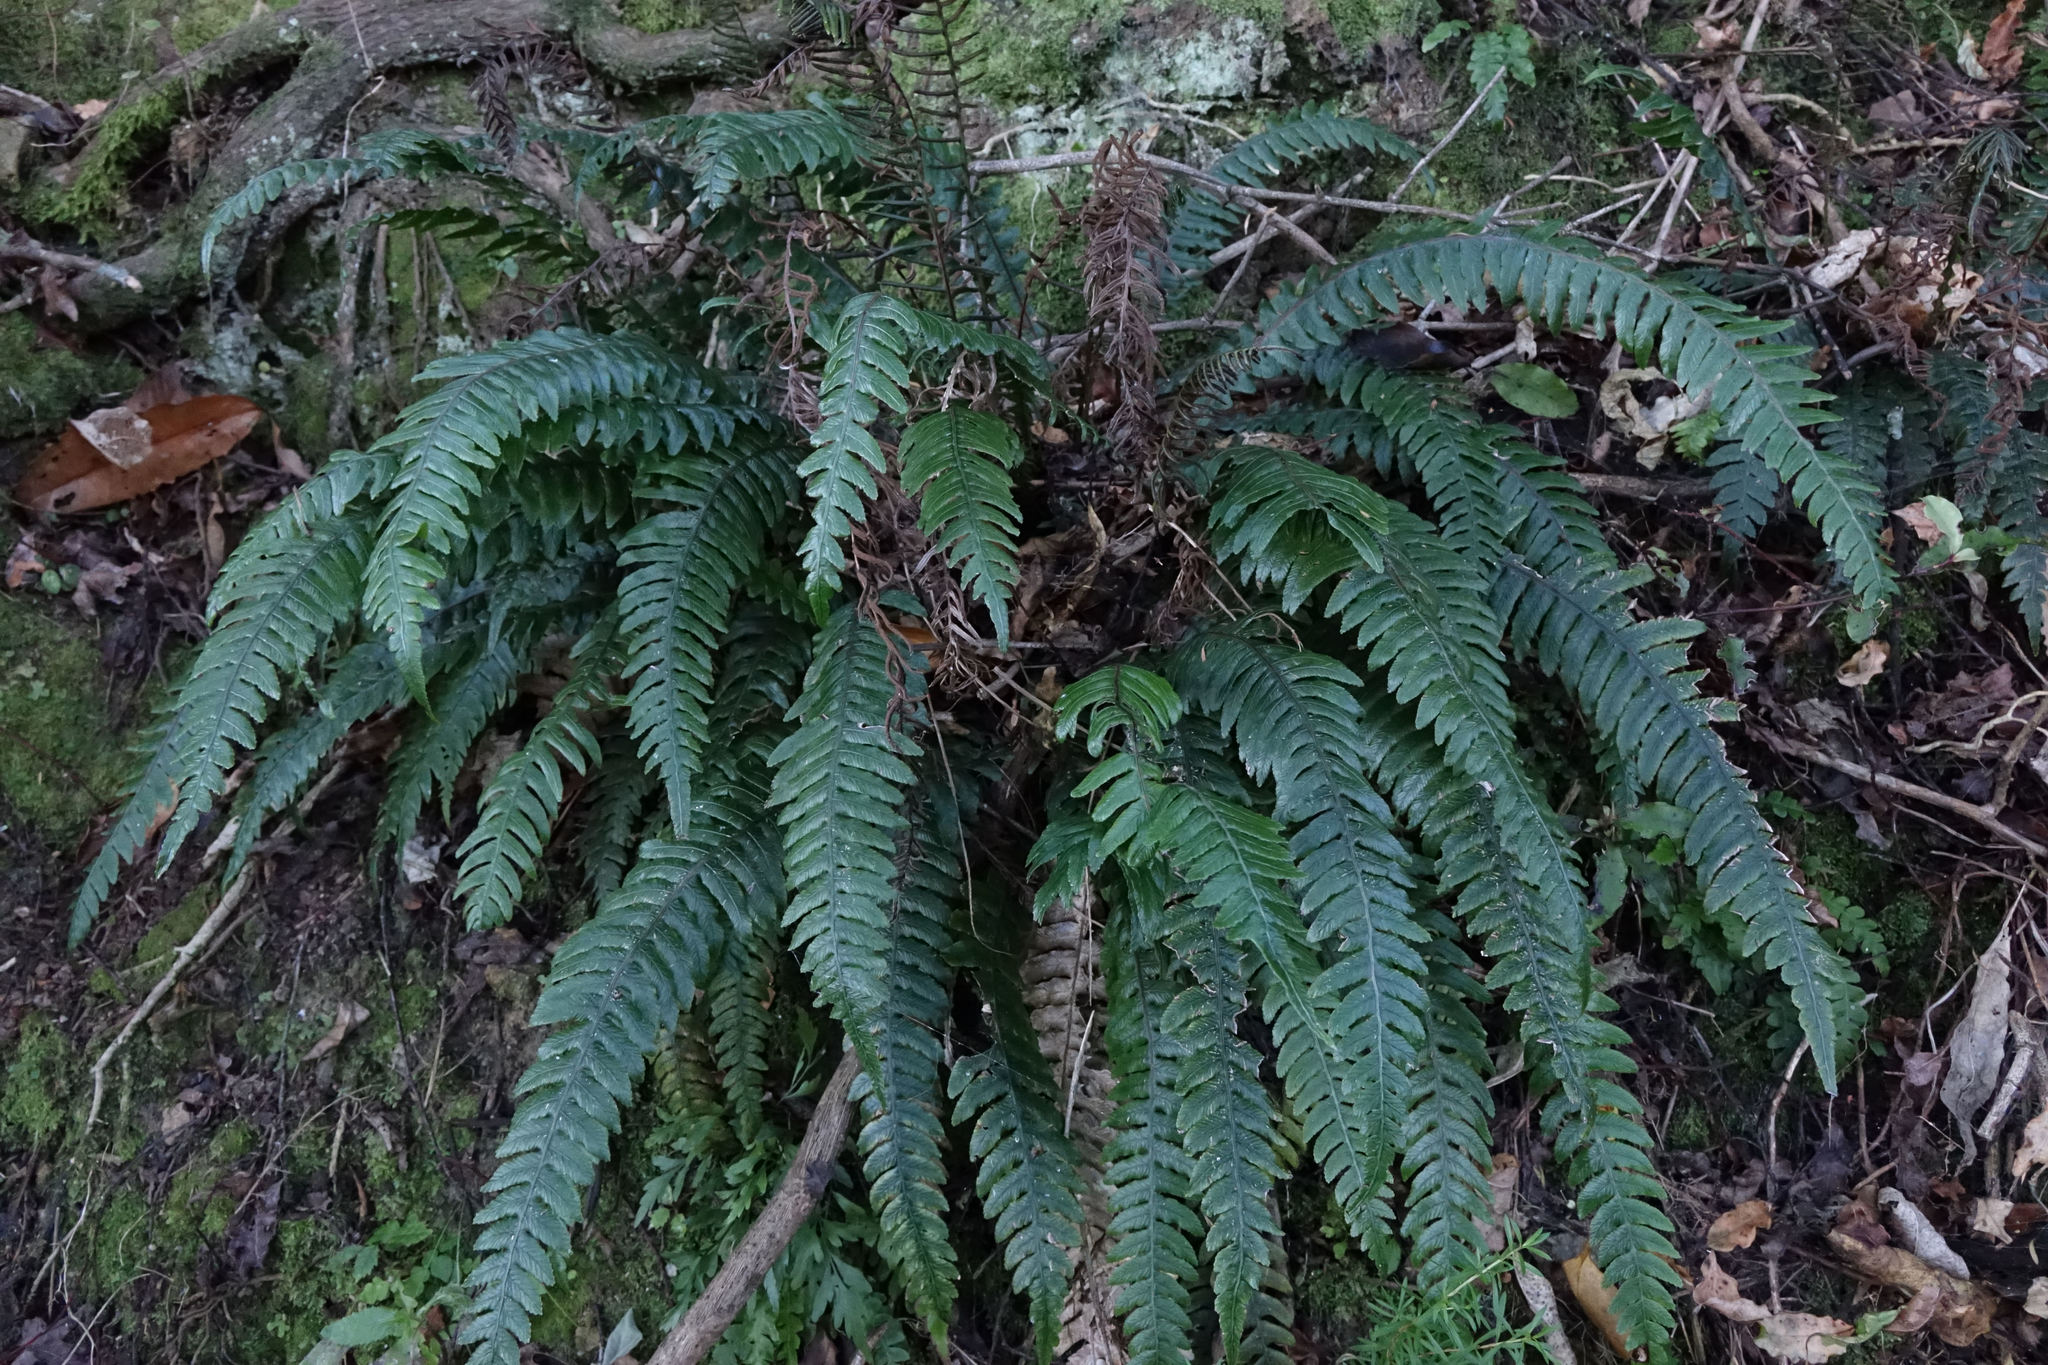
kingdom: Plantae
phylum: Tracheophyta
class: Polypodiopsida
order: Polypodiales
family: Blechnaceae
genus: Austroblechnum
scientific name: Austroblechnum lanceolatum
